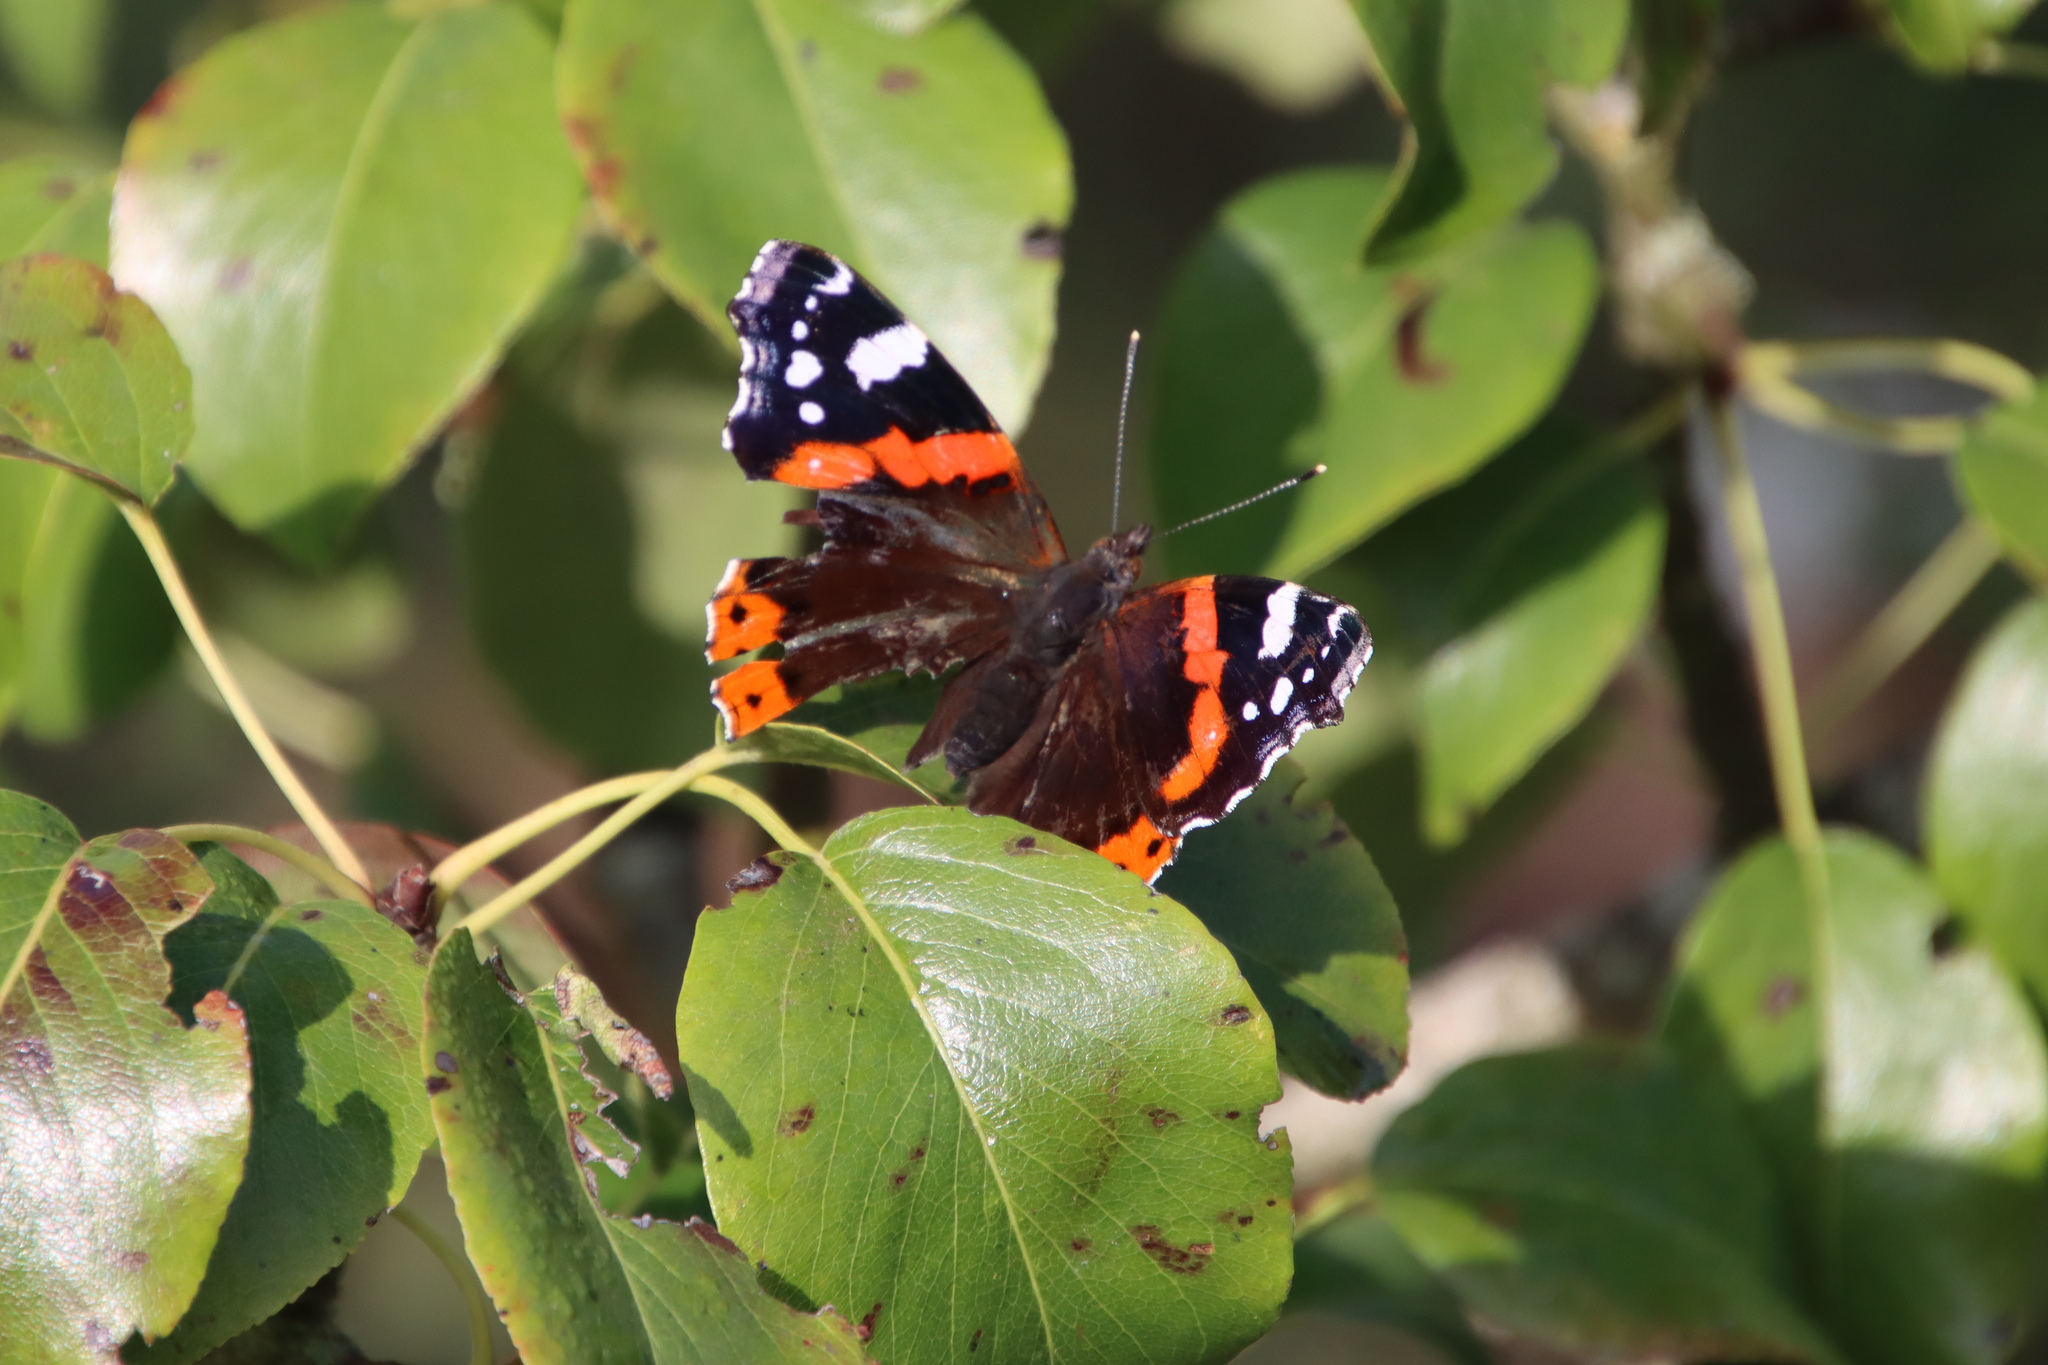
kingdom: Animalia
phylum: Arthropoda
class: Insecta
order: Lepidoptera
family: Nymphalidae
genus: Vanessa
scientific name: Vanessa atalanta
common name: Red admiral
